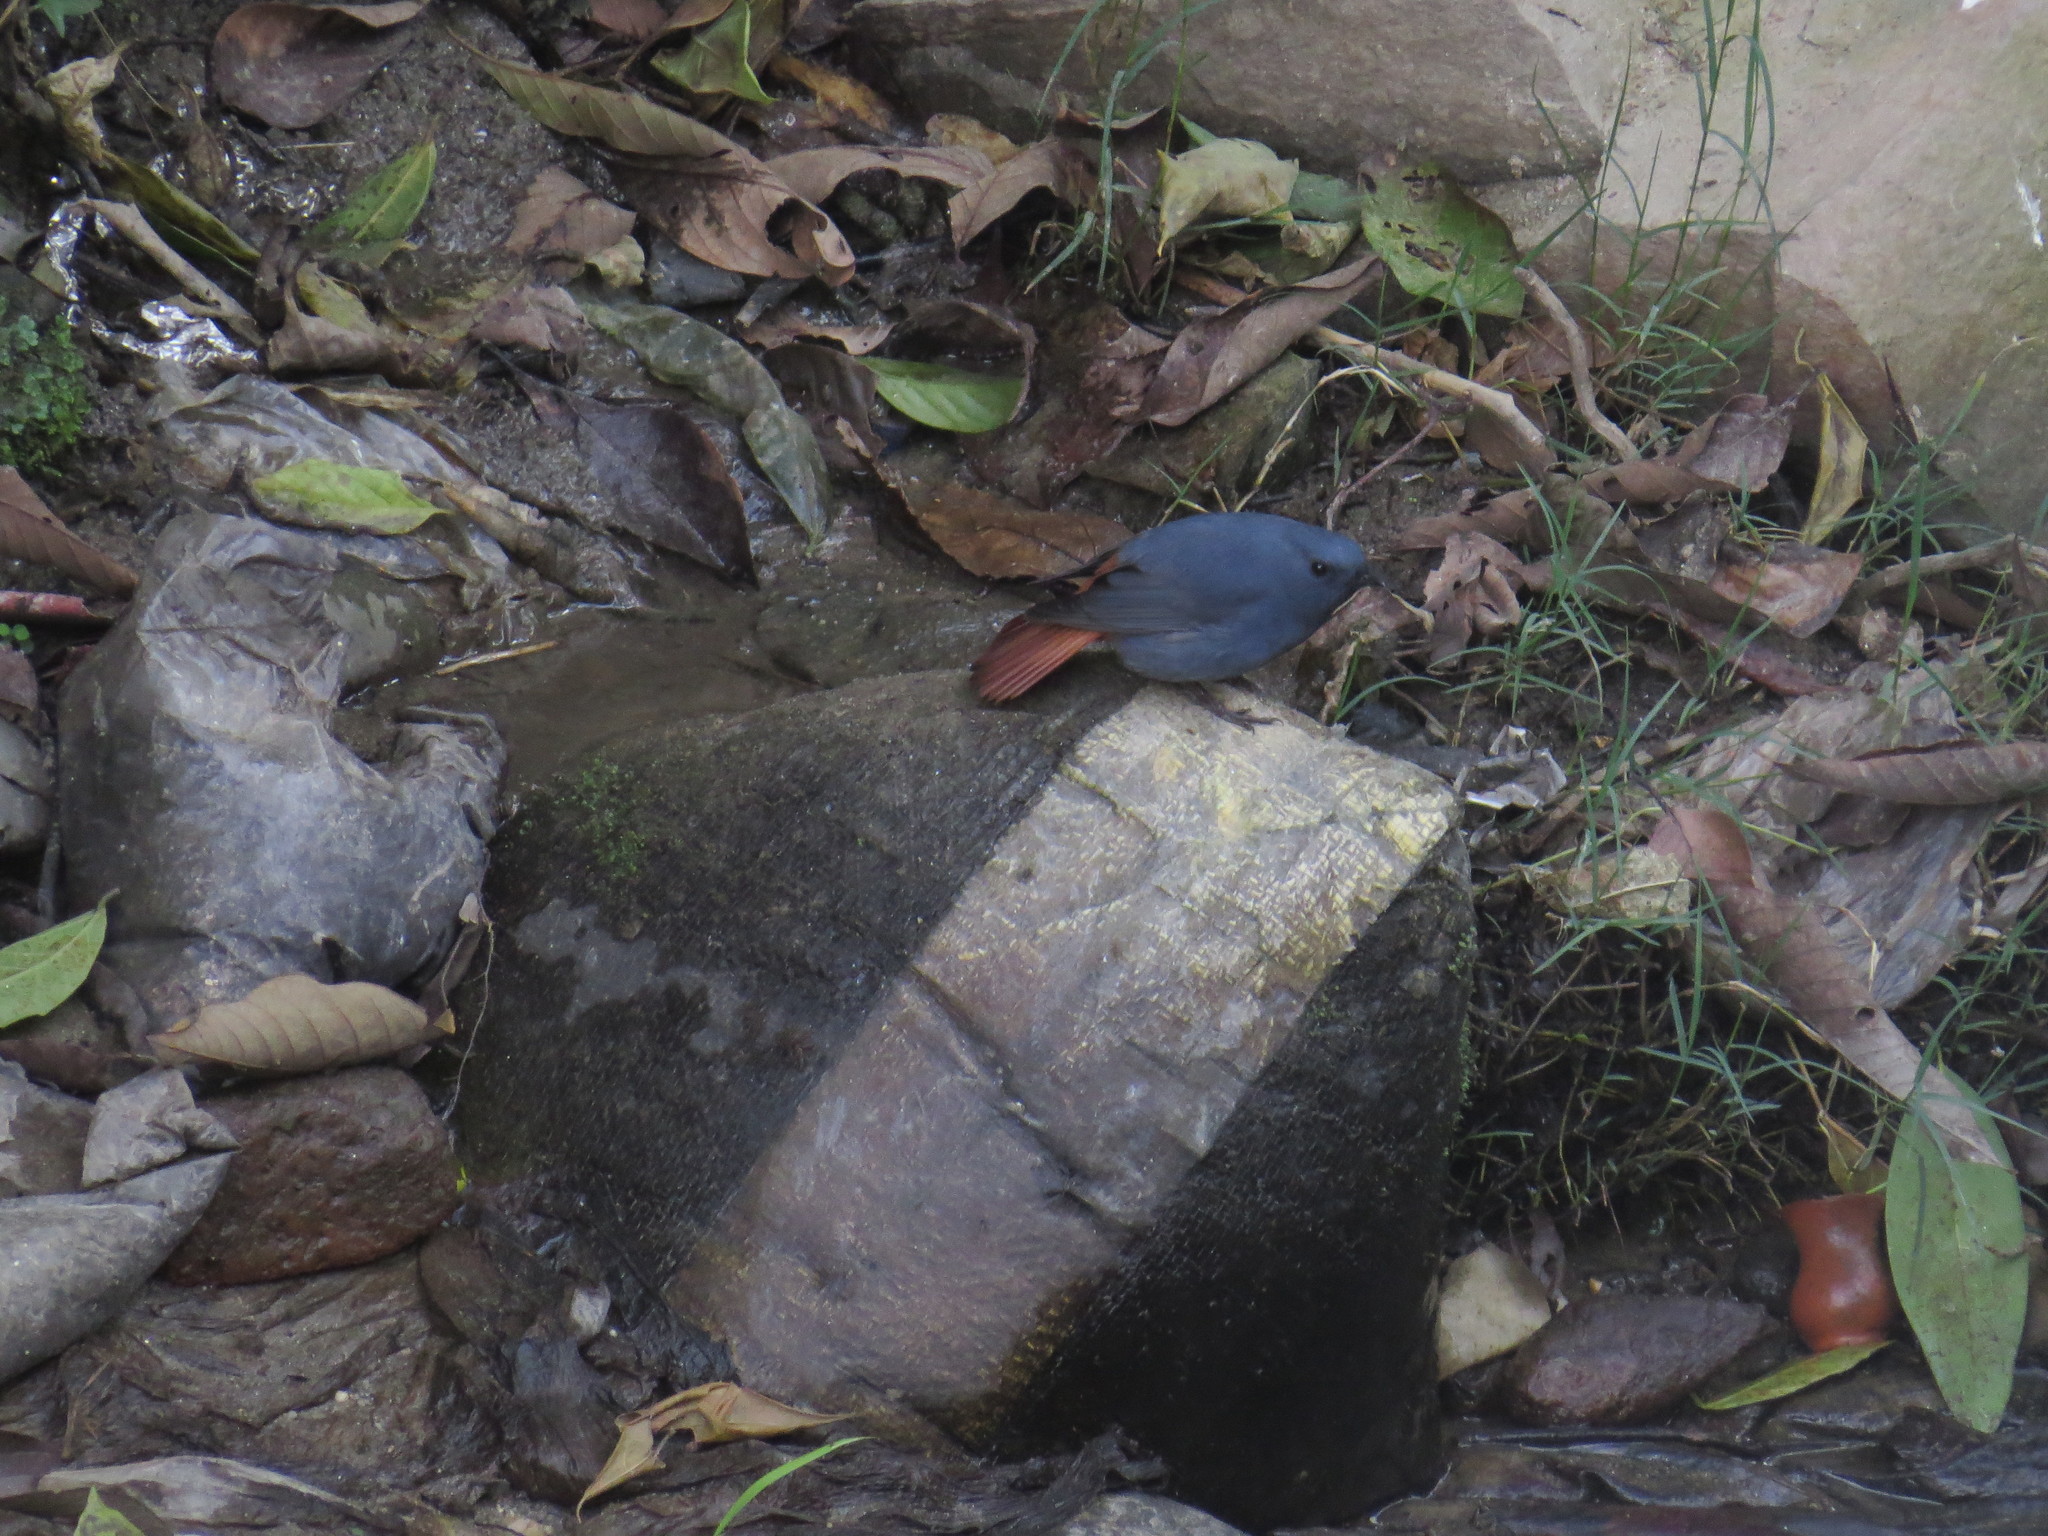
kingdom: Animalia
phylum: Chordata
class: Aves
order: Passeriformes
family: Muscicapidae
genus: Phoenicurus
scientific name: Phoenicurus fuliginosus
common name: Plumbeous water redstart
